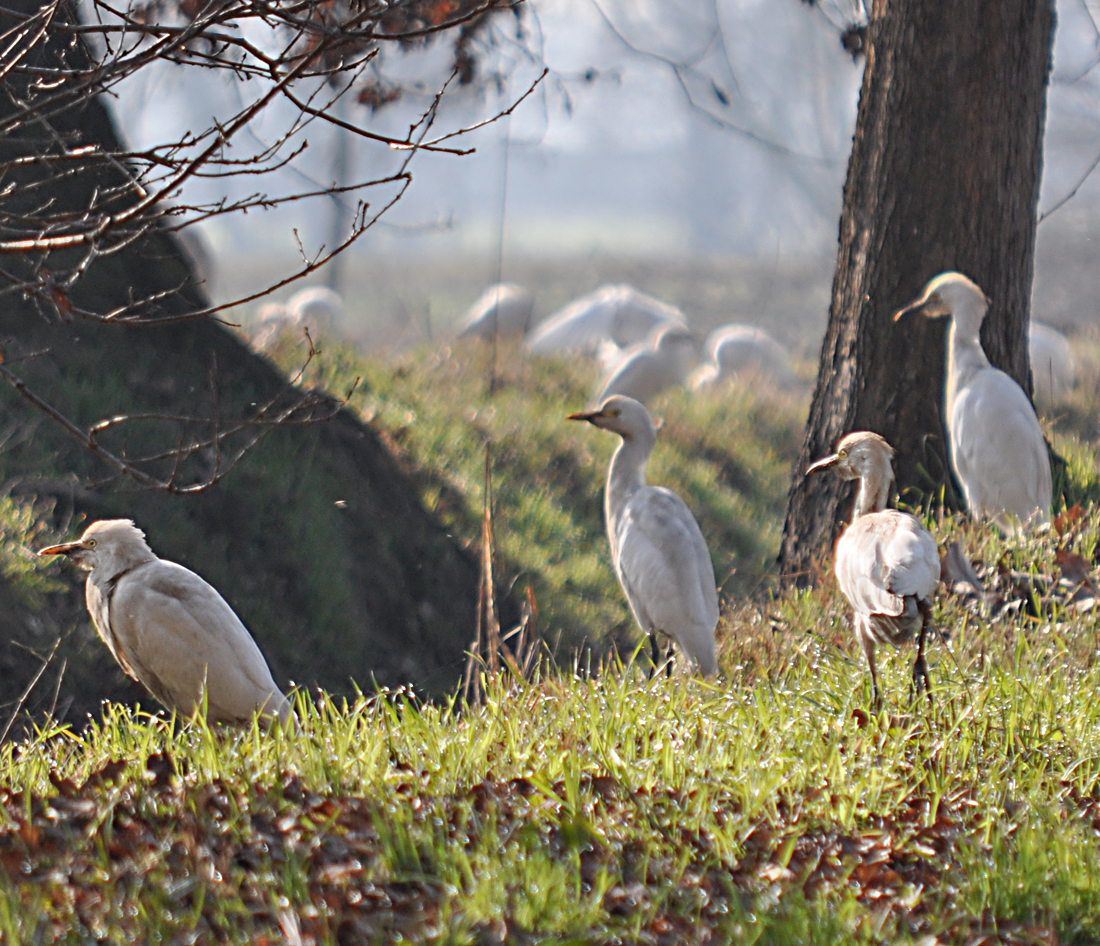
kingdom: Animalia
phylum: Chordata
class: Aves
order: Pelecaniformes
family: Ardeidae
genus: Bubulcus
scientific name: Bubulcus ibis
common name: Cattle egret
